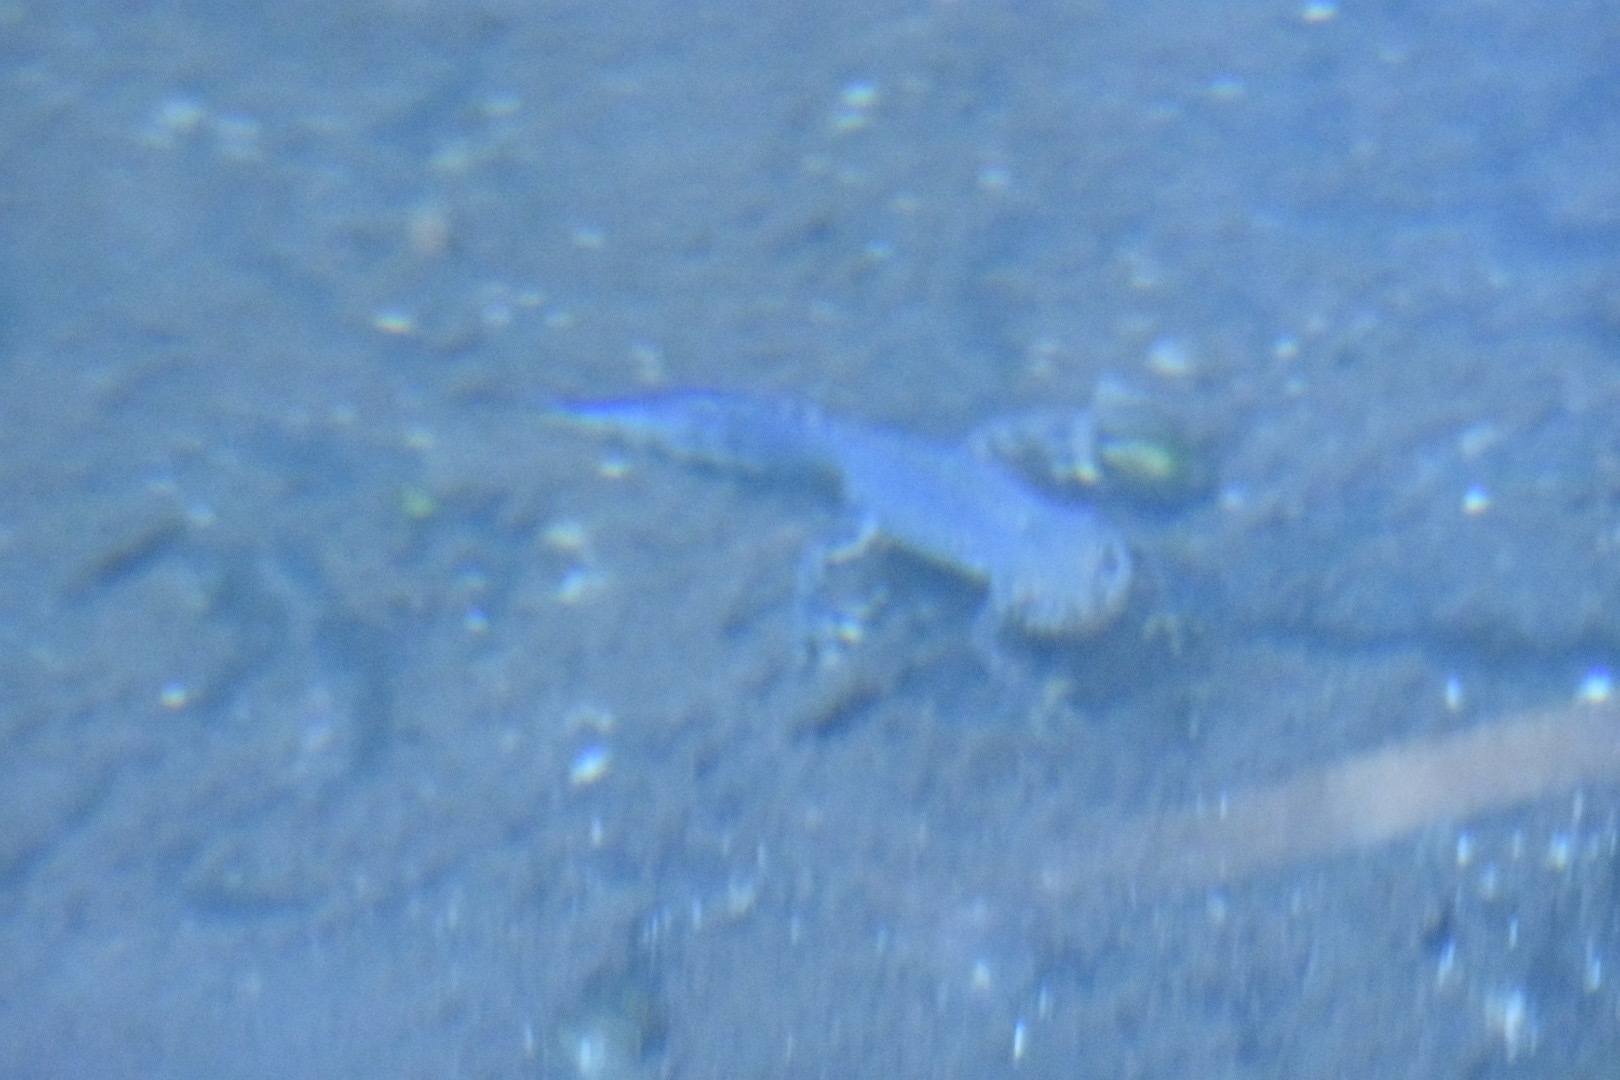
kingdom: Animalia
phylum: Chordata
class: Amphibia
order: Caudata
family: Salamandridae
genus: Ichthyosaura
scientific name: Ichthyosaura alpestris
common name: Alpine newt
